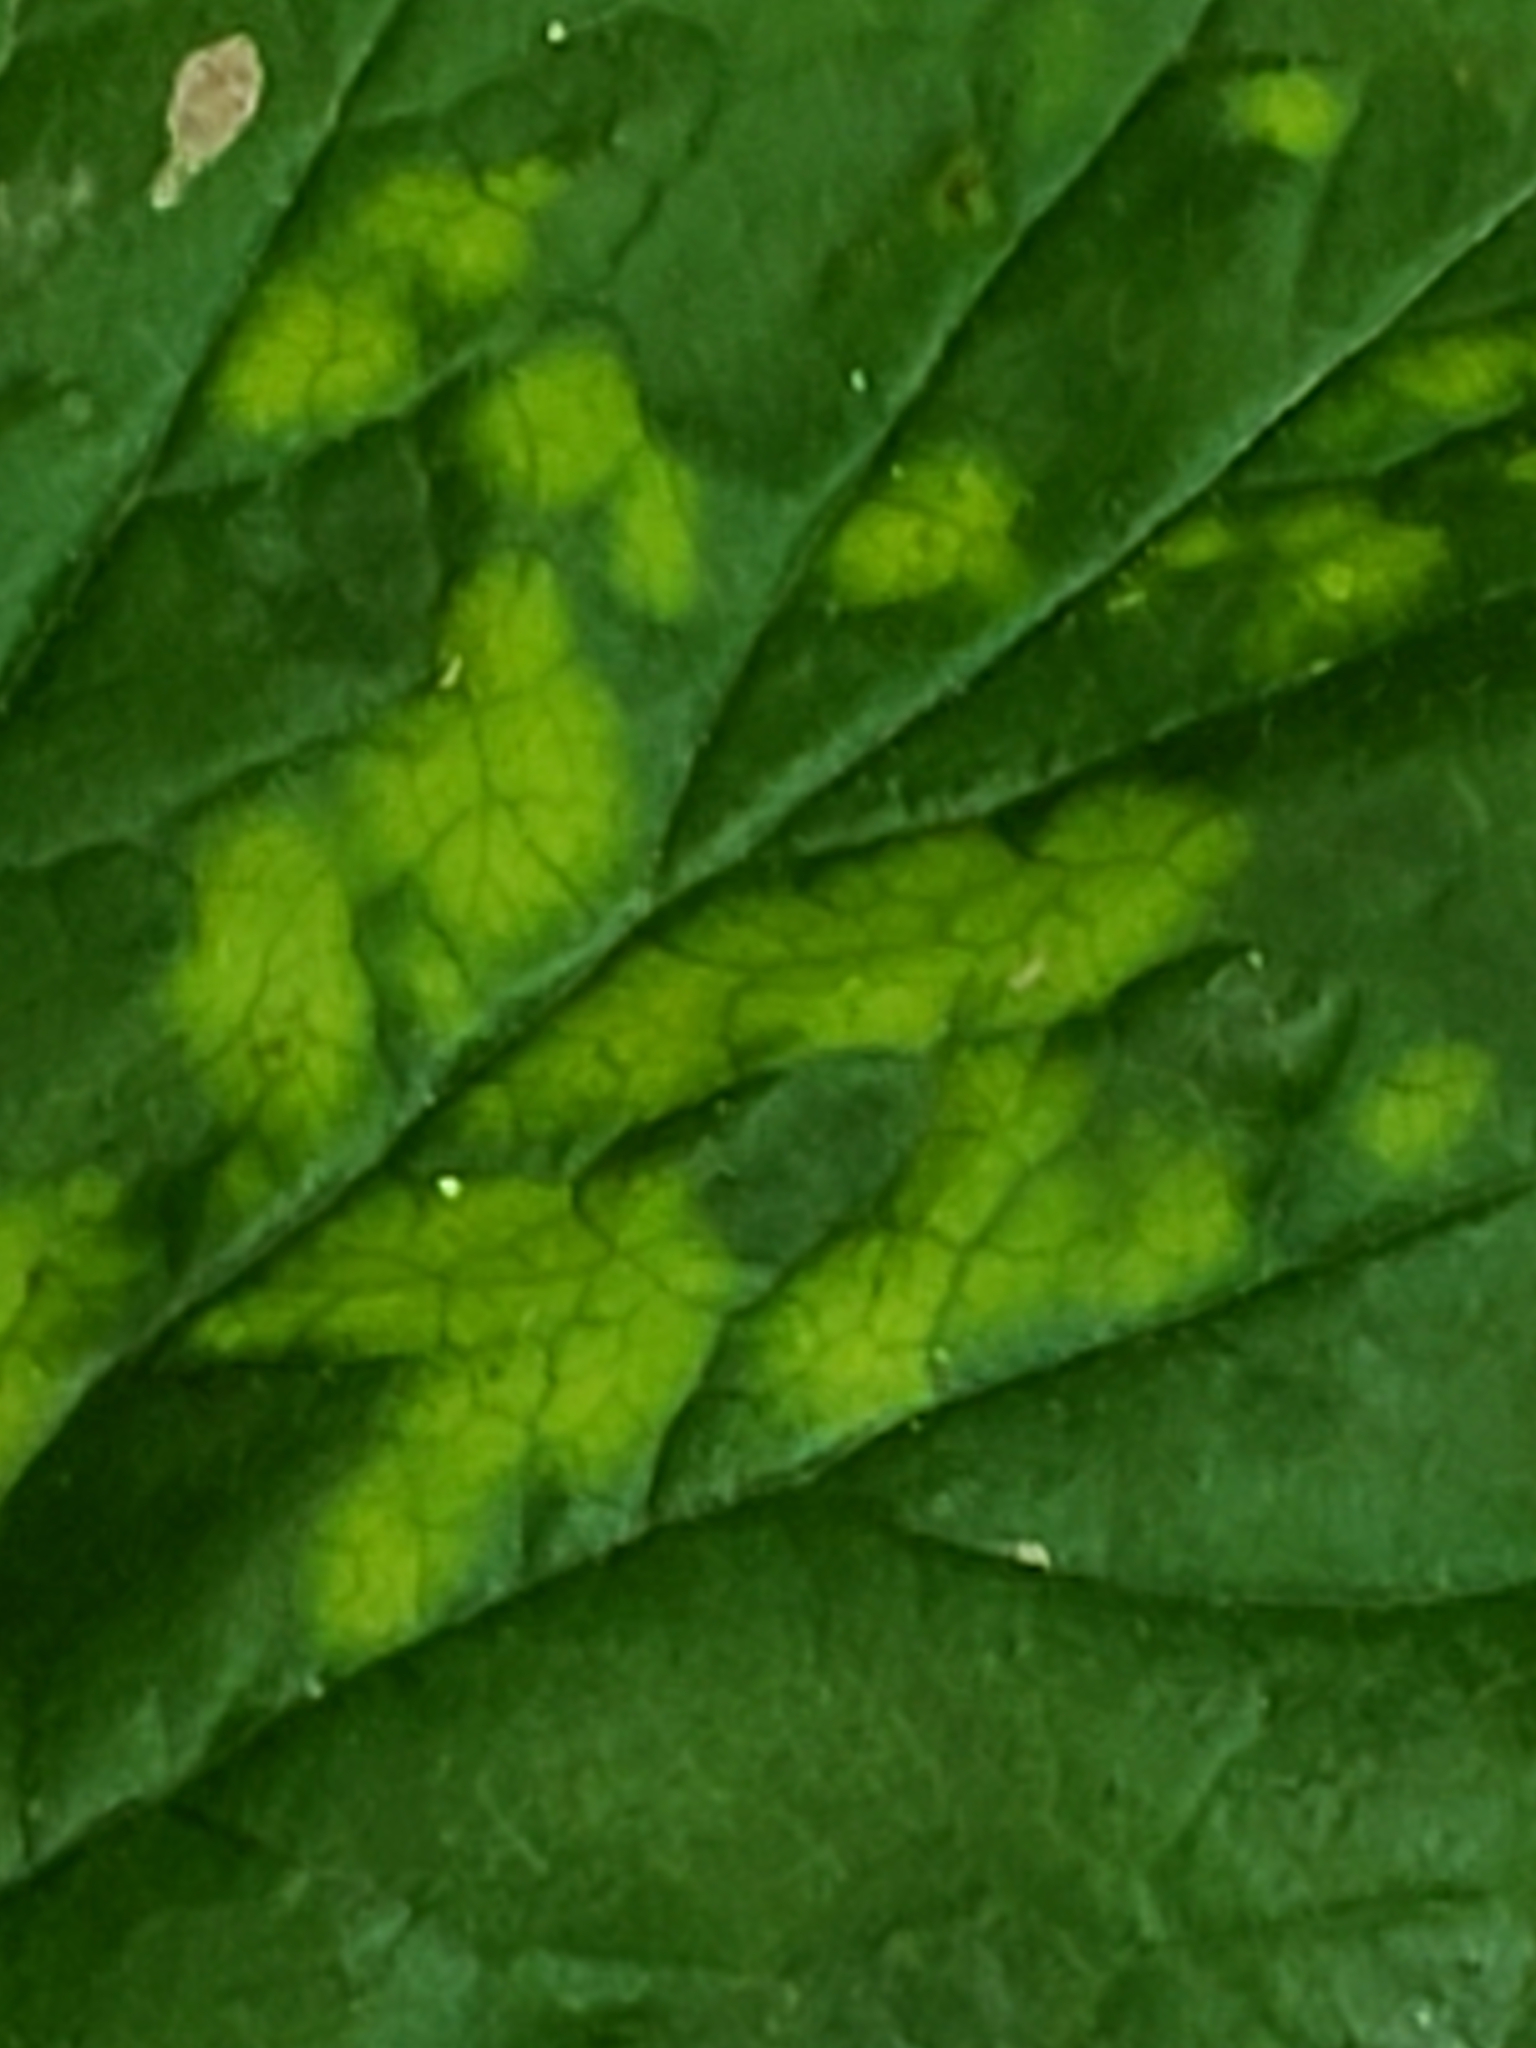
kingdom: Plantae
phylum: Tracheophyta
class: Magnoliopsida
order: Apiales
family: Apiaceae
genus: Cryptotaenia
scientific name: Cryptotaenia canadensis
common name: Honewort
